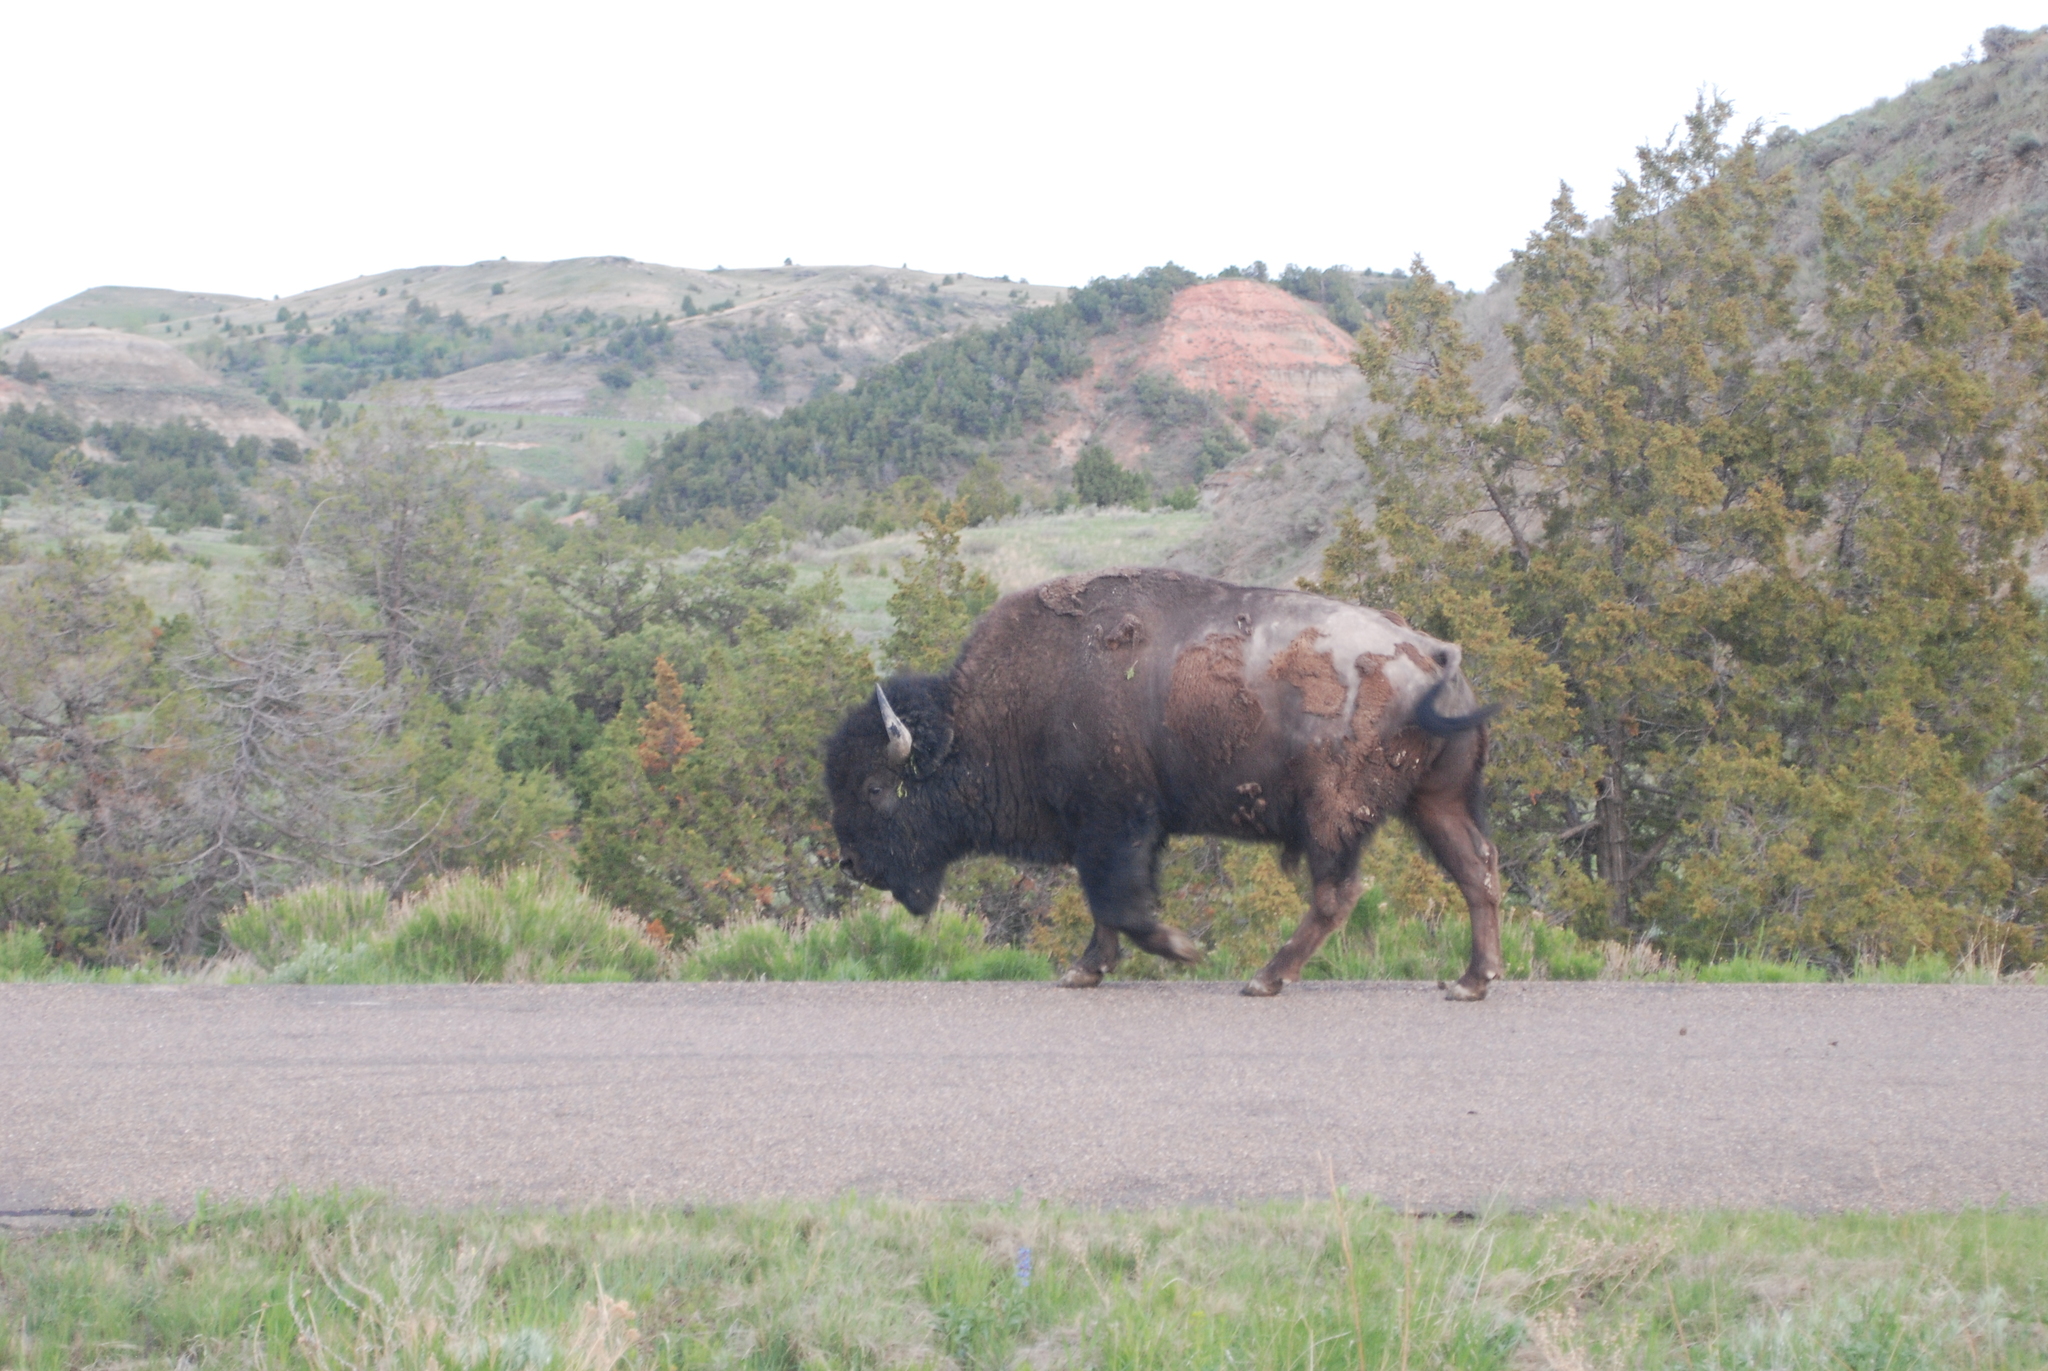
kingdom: Animalia
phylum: Chordata
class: Mammalia
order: Artiodactyla
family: Bovidae
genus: Bison
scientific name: Bison bison
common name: American bison
